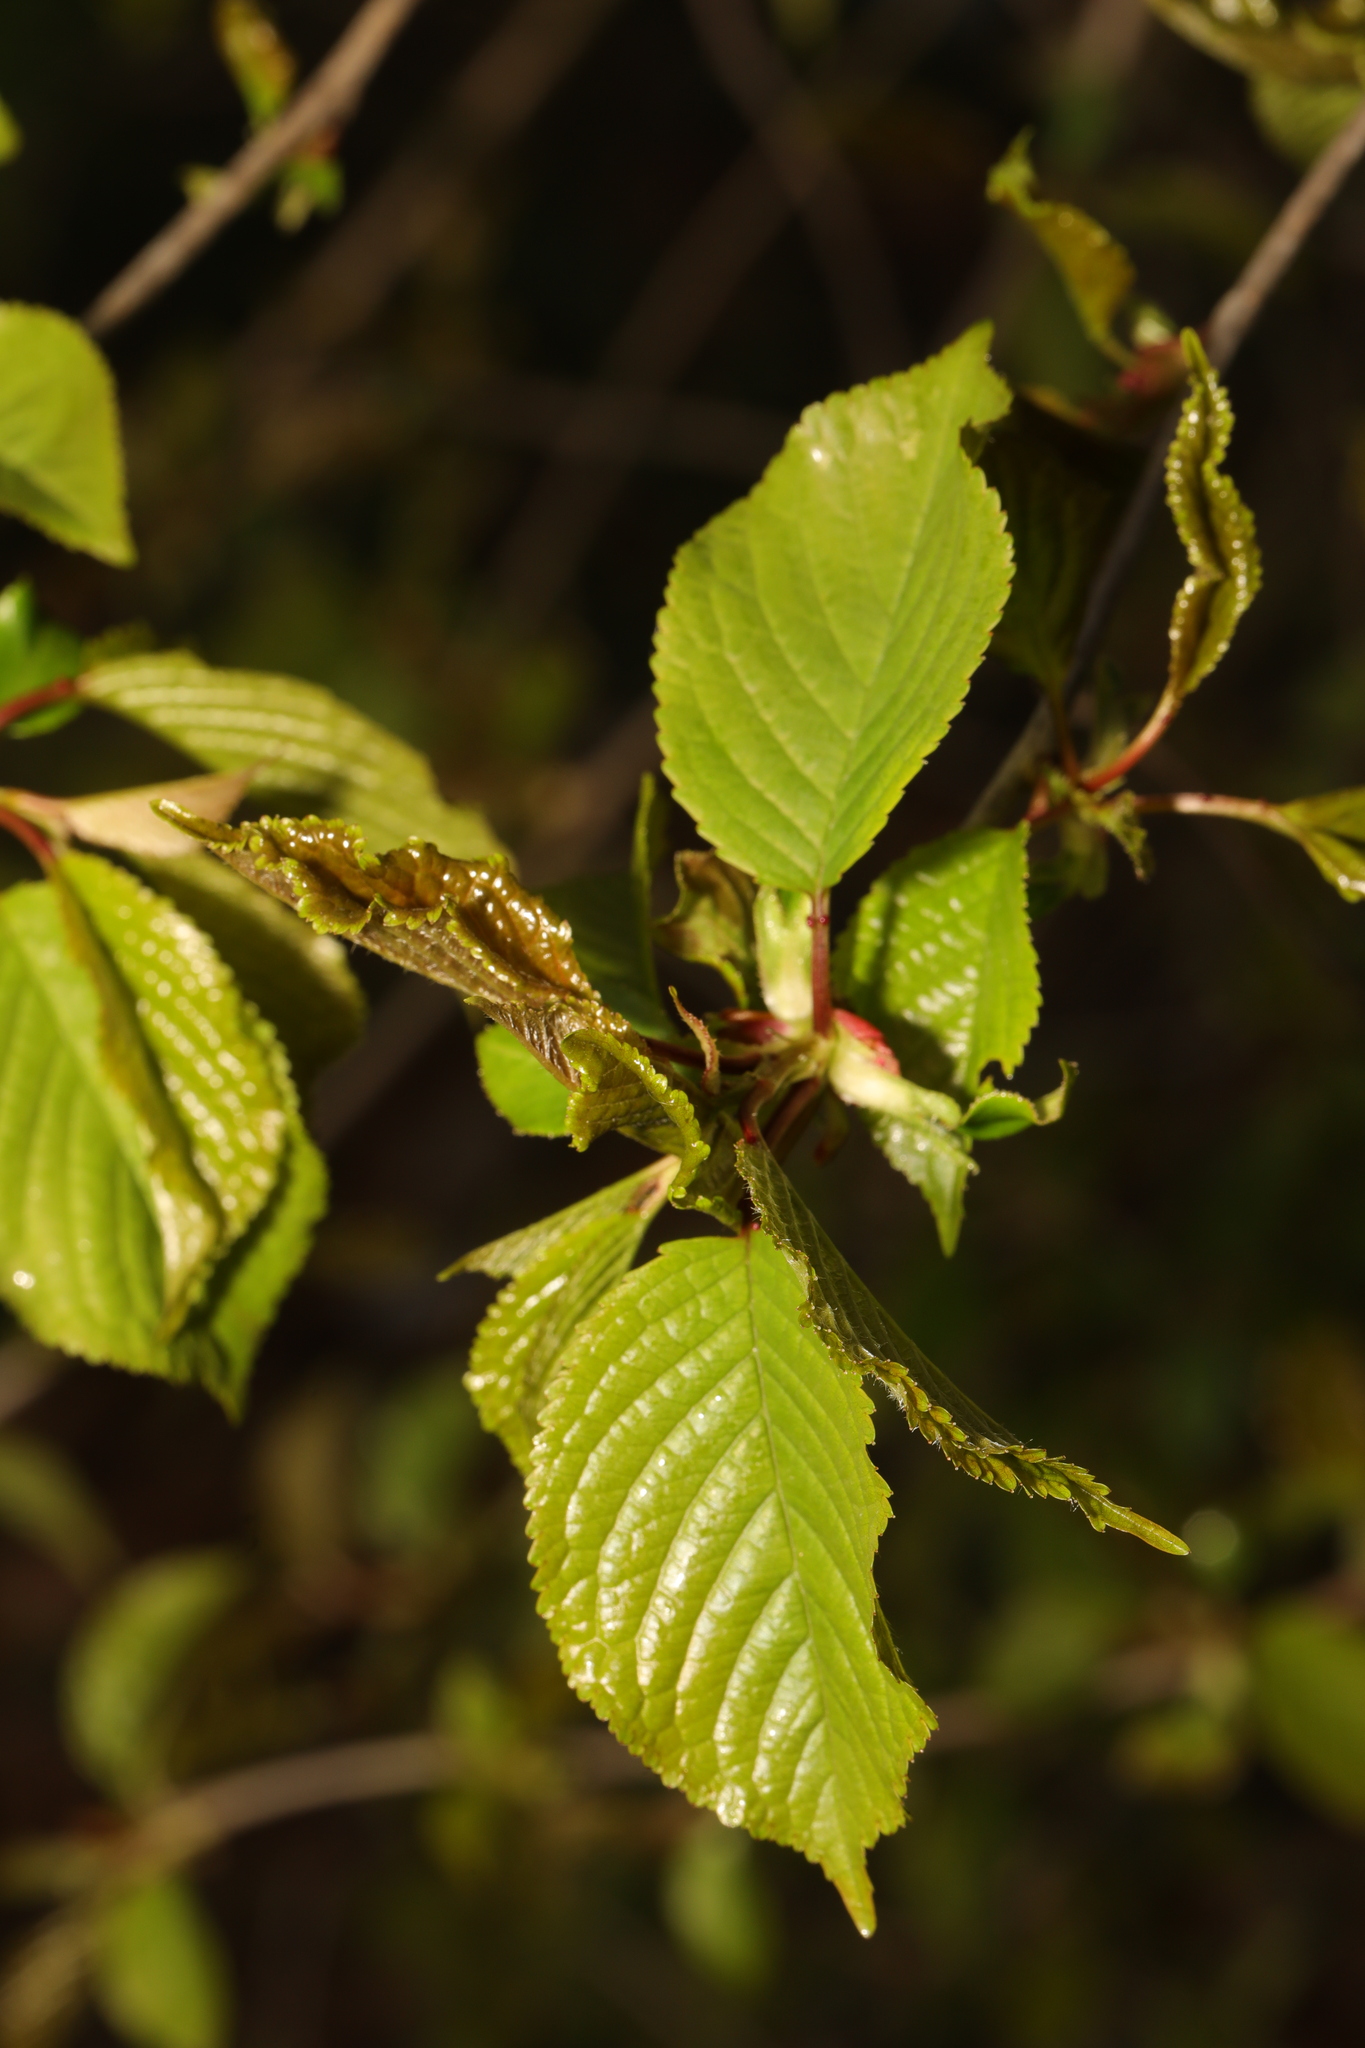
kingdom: Plantae
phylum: Tracheophyta
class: Magnoliopsida
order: Rosales
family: Rosaceae
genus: Prunus
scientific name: Prunus avium
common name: Sweet cherry
